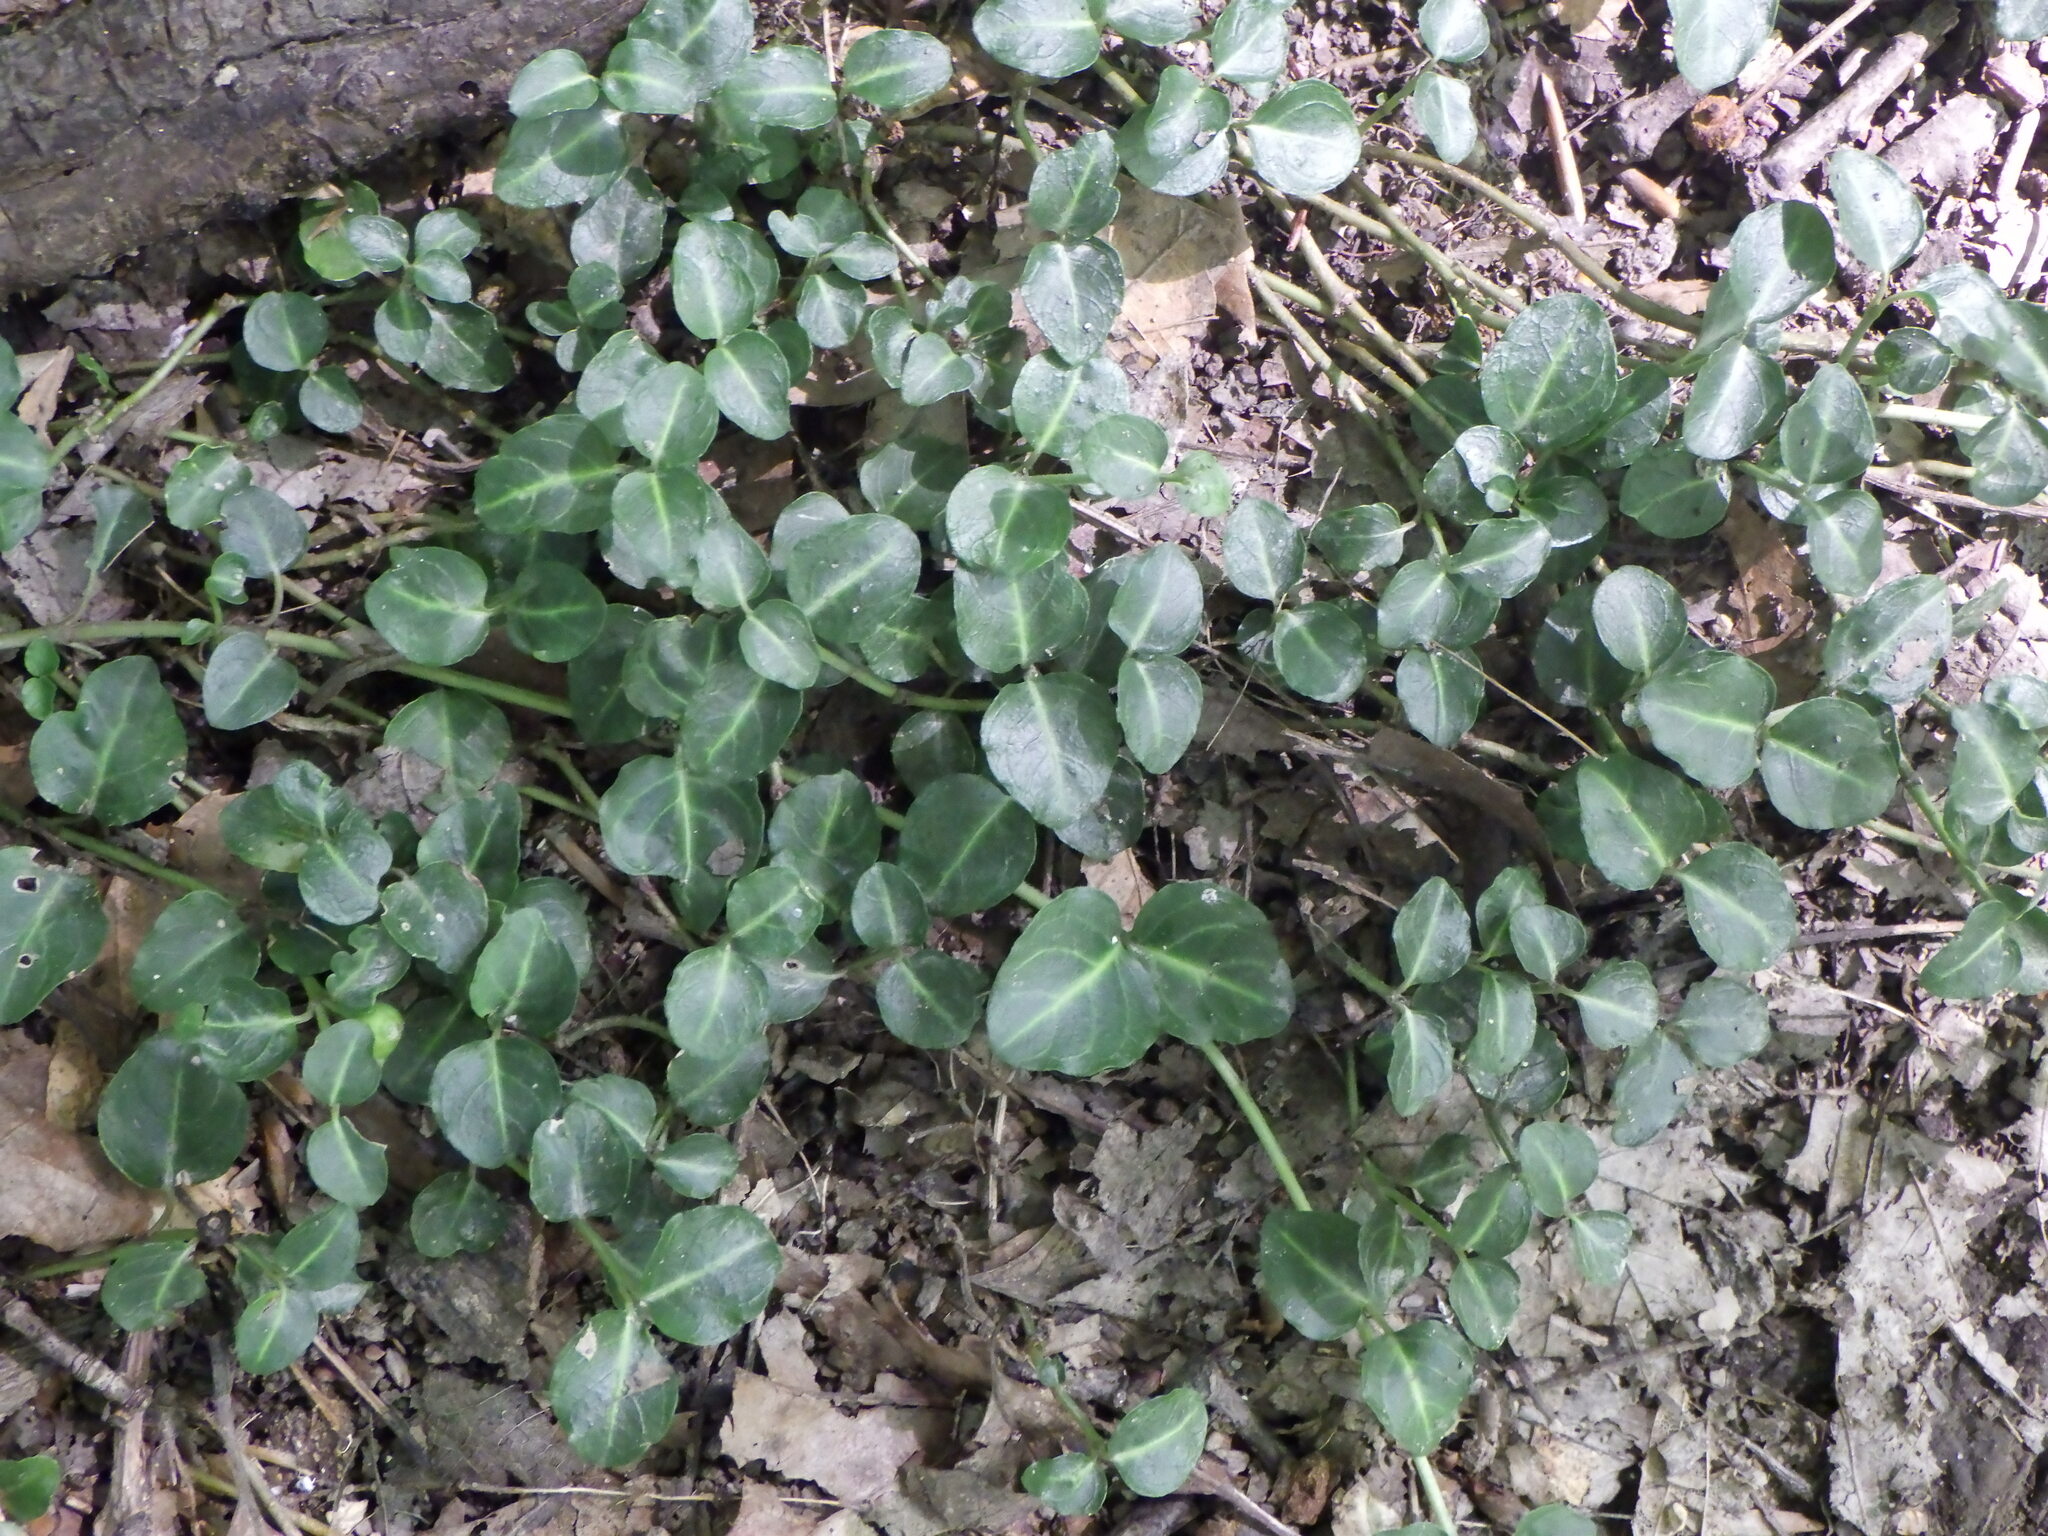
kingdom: Plantae
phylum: Tracheophyta
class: Magnoliopsida
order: Gentianales
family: Rubiaceae
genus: Mitchella
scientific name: Mitchella repens
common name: Partridge-berry
